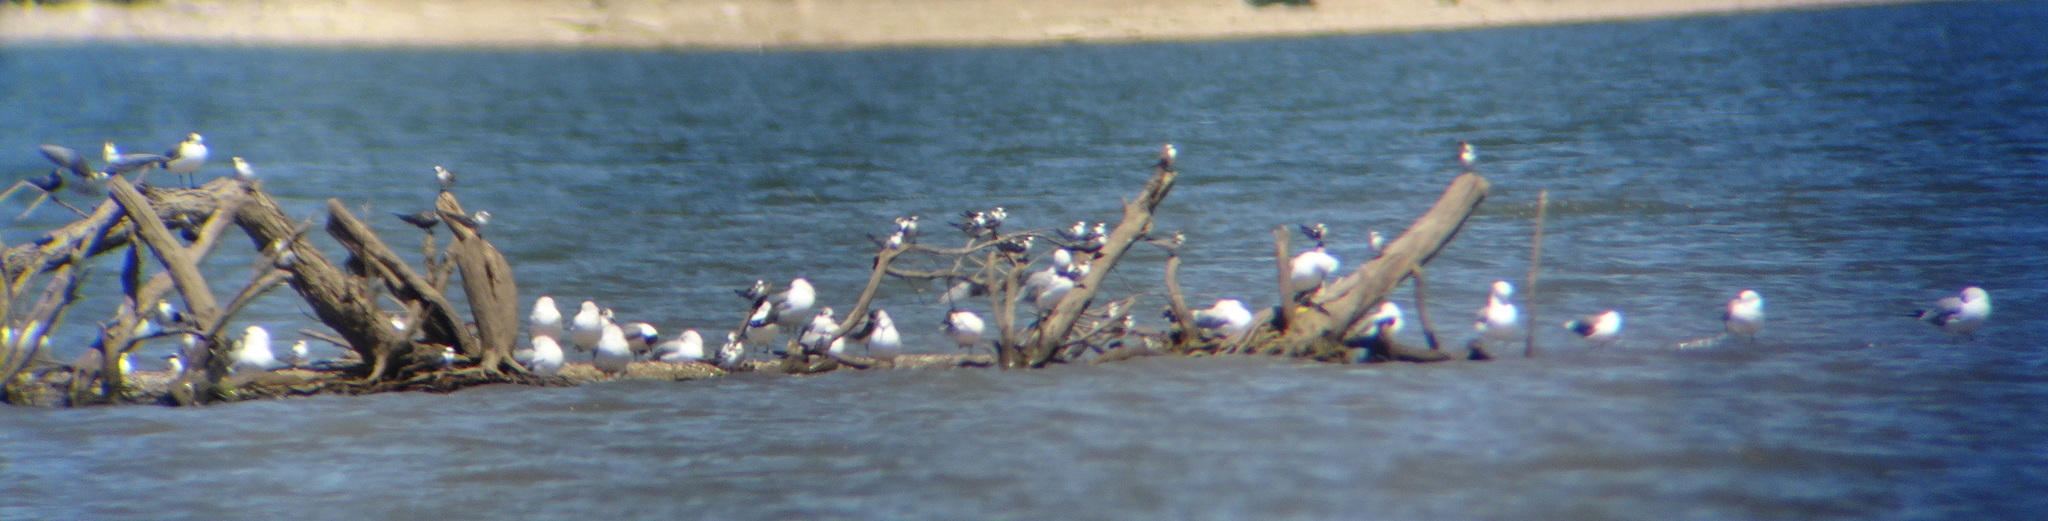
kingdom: Animalia
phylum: Chordata
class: Aves
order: Charadriiformes
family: Laridae
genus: Chlidonias
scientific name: Chlidonias niger
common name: Black tern
